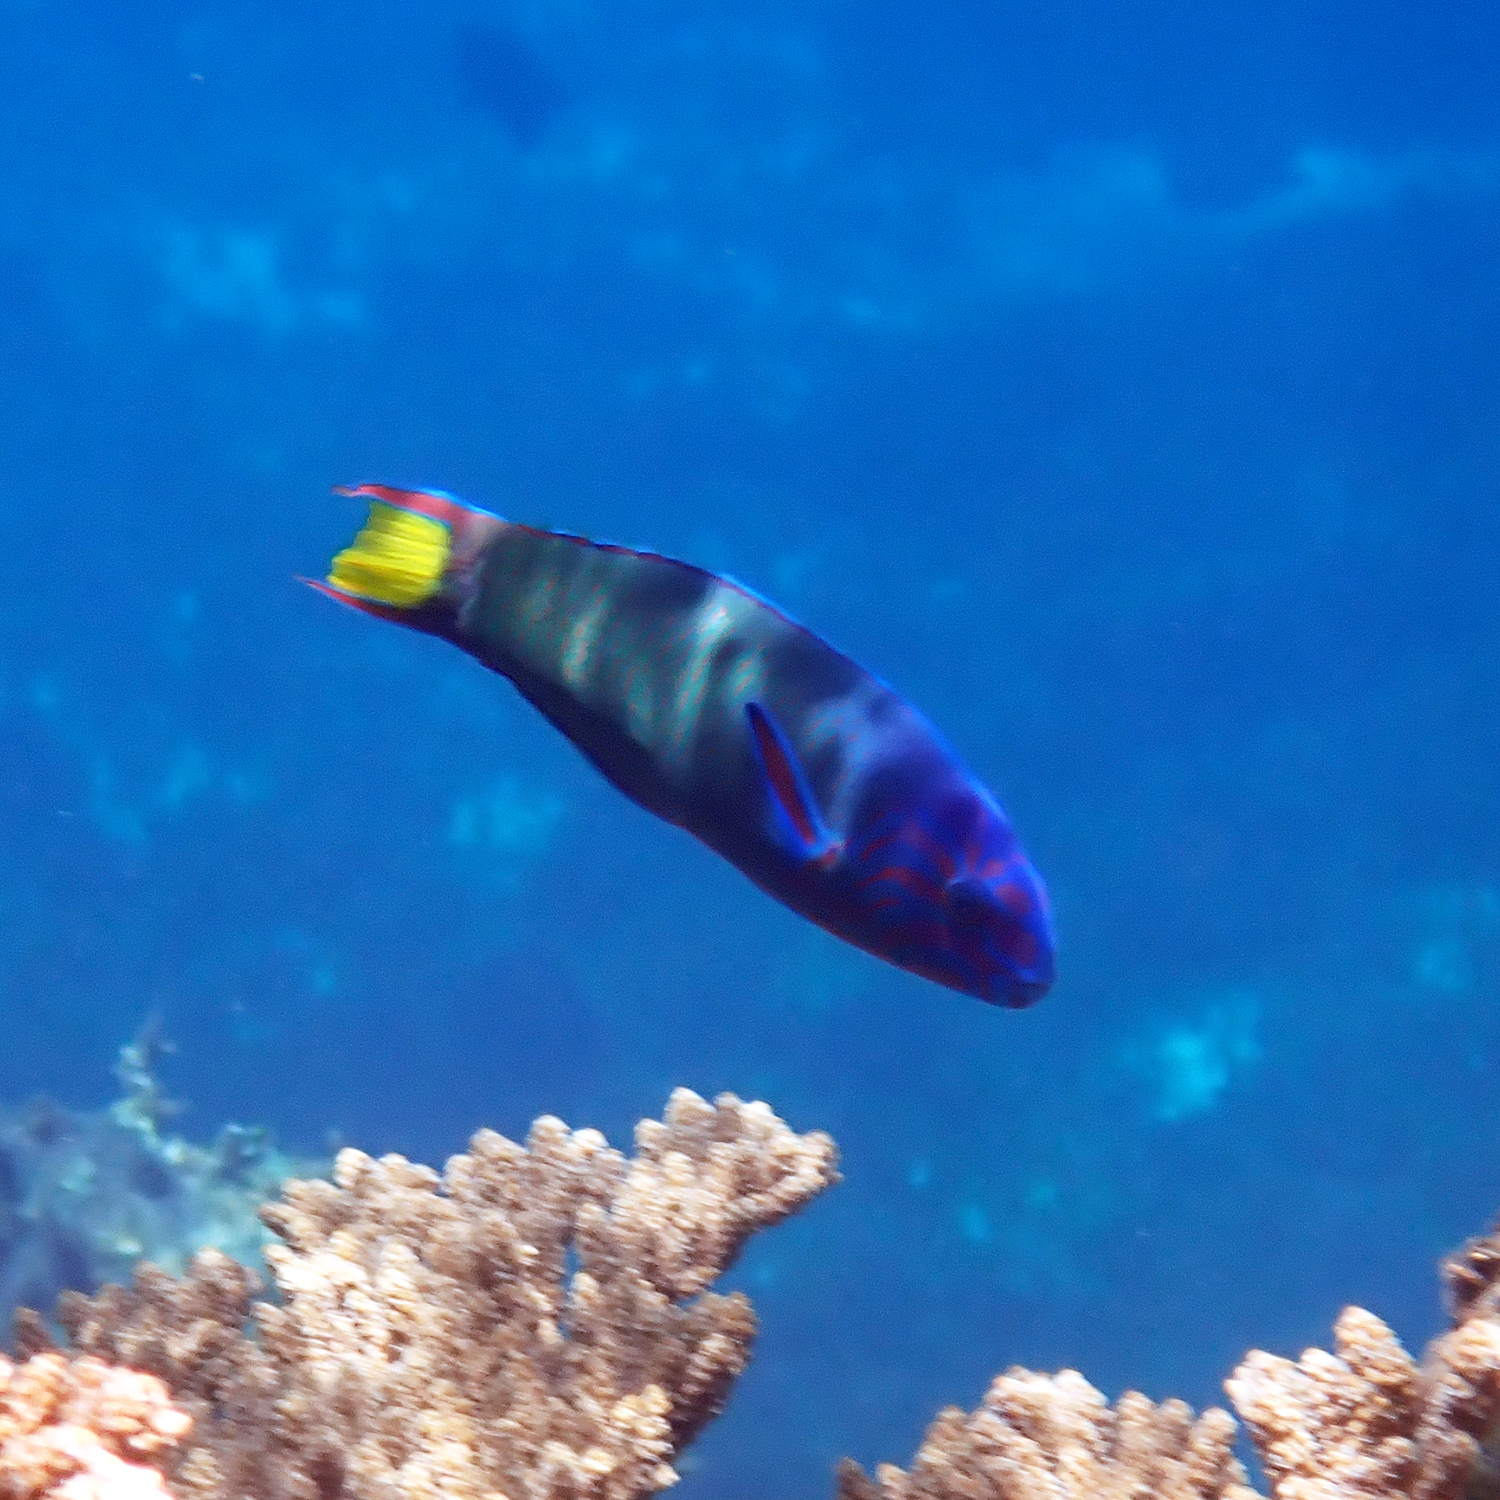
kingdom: Animalia
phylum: Chordata
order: Perciformes
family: Labridae
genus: Thalassoma
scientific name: Thalassoma lunare
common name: Blue wrasse
